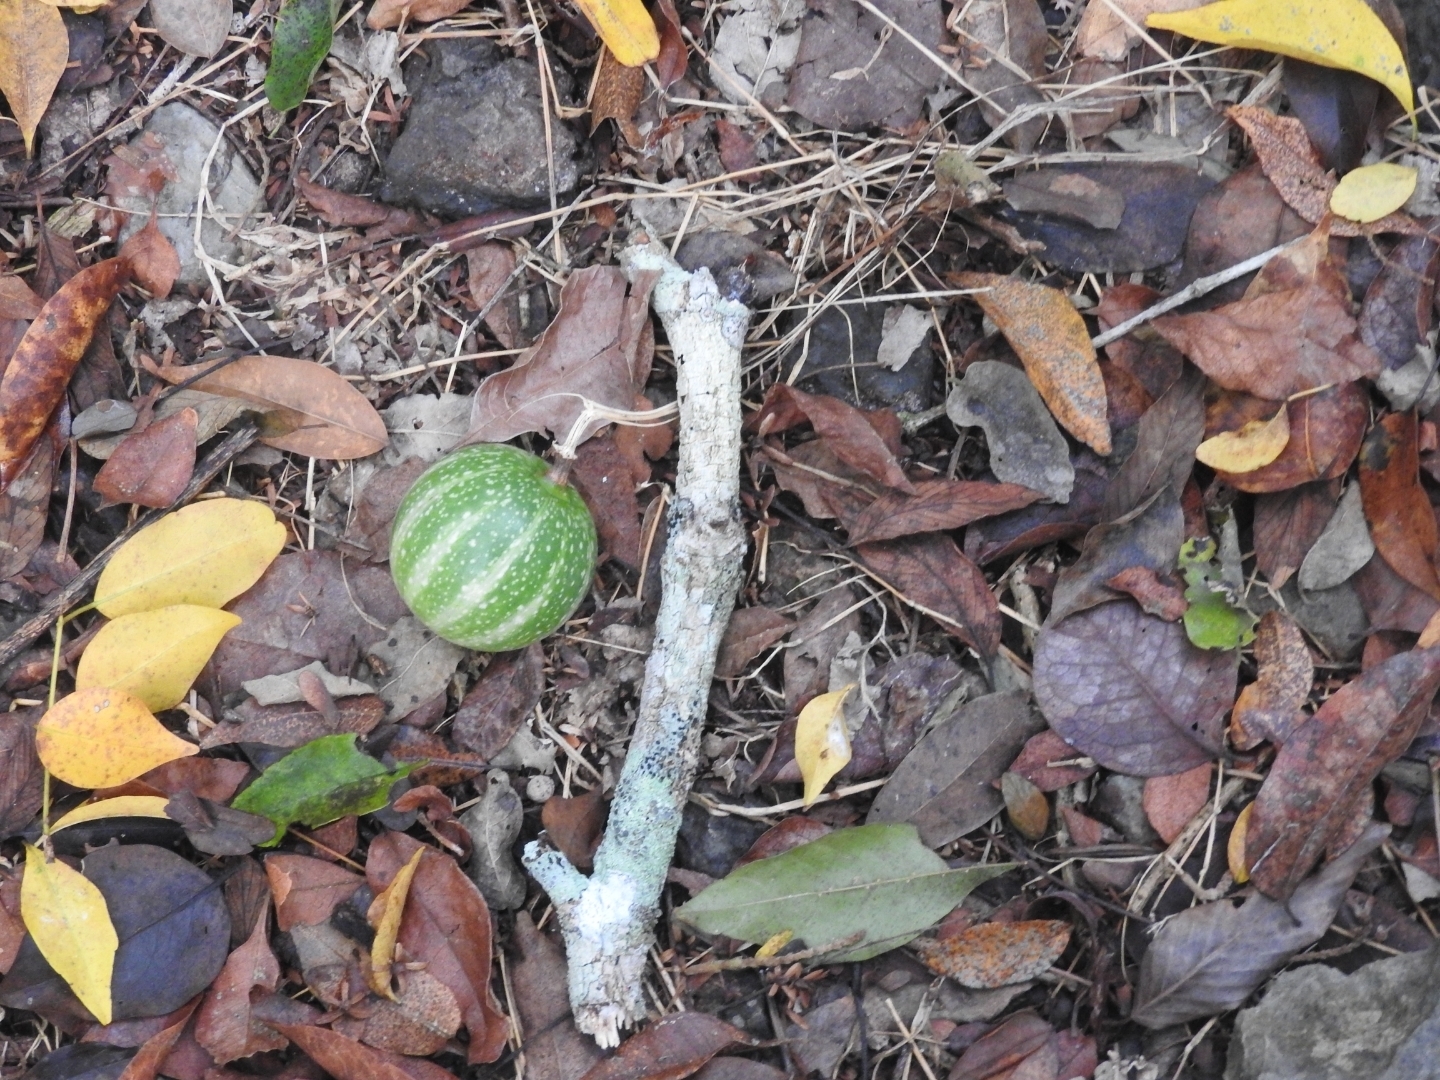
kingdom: Plantae
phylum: Tracheophyta
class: Magnoliopsida
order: Cucurbitales
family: Cucurbitaceae
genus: Cionosicys
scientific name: Cionosicys excisus
